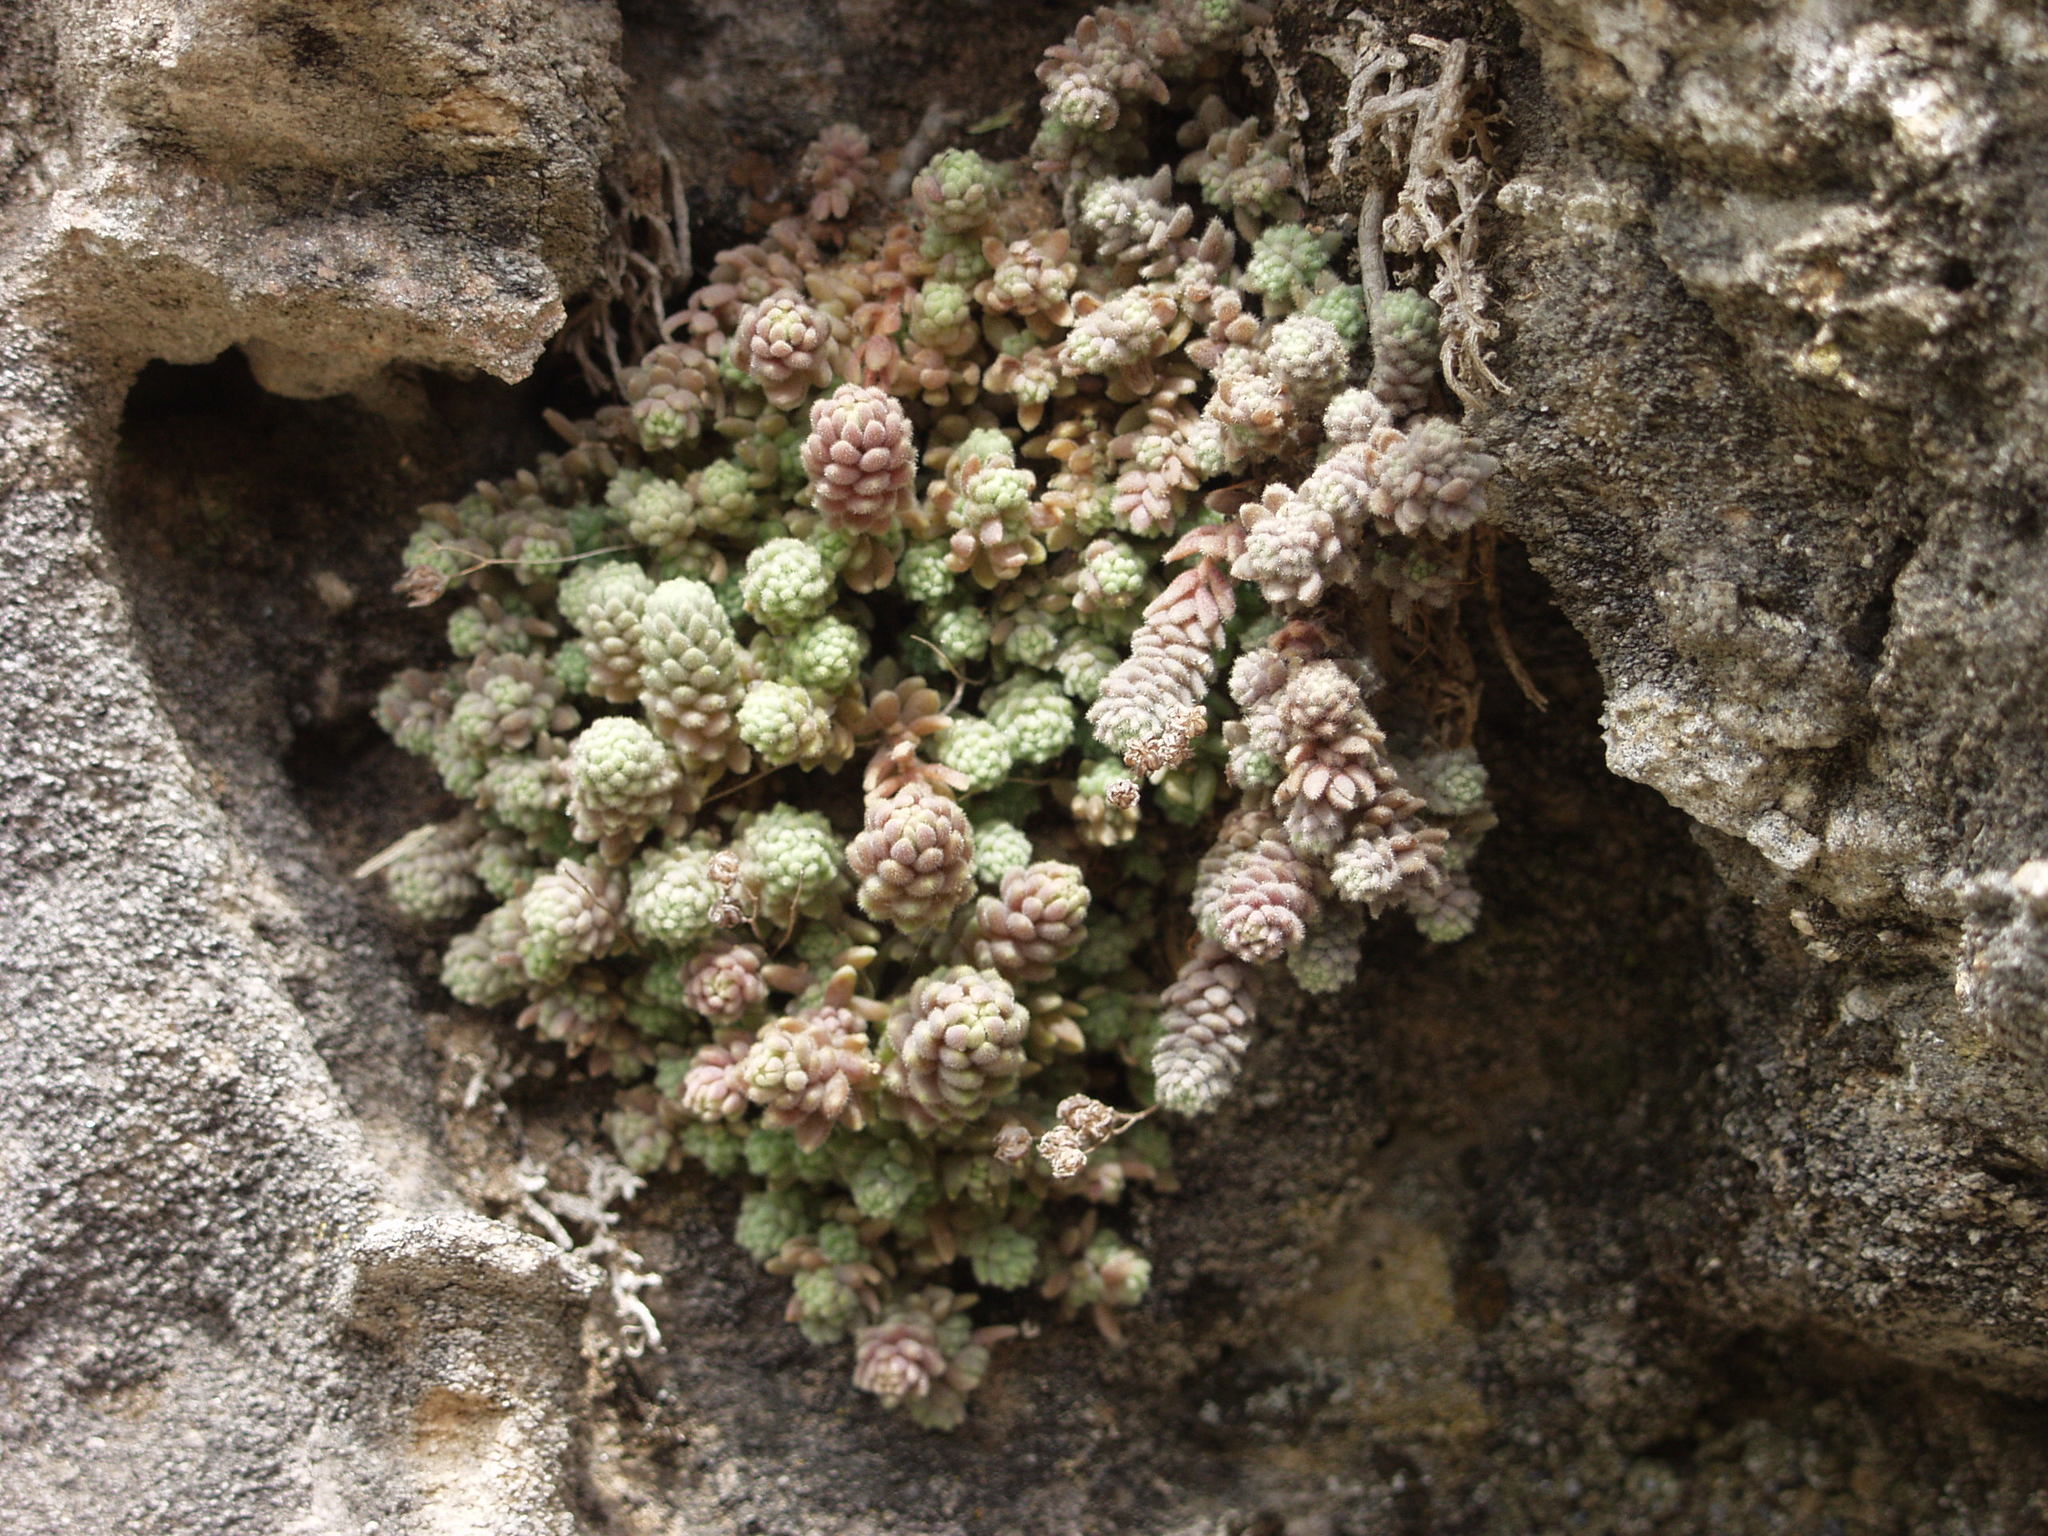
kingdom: Plantae
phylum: Tracheophyta
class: Magnoliopsida
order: Saxifragales
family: Crassulaceae
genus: Sedum
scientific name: Sedum dasyphyllum
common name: Thick-leaf stonecrop
